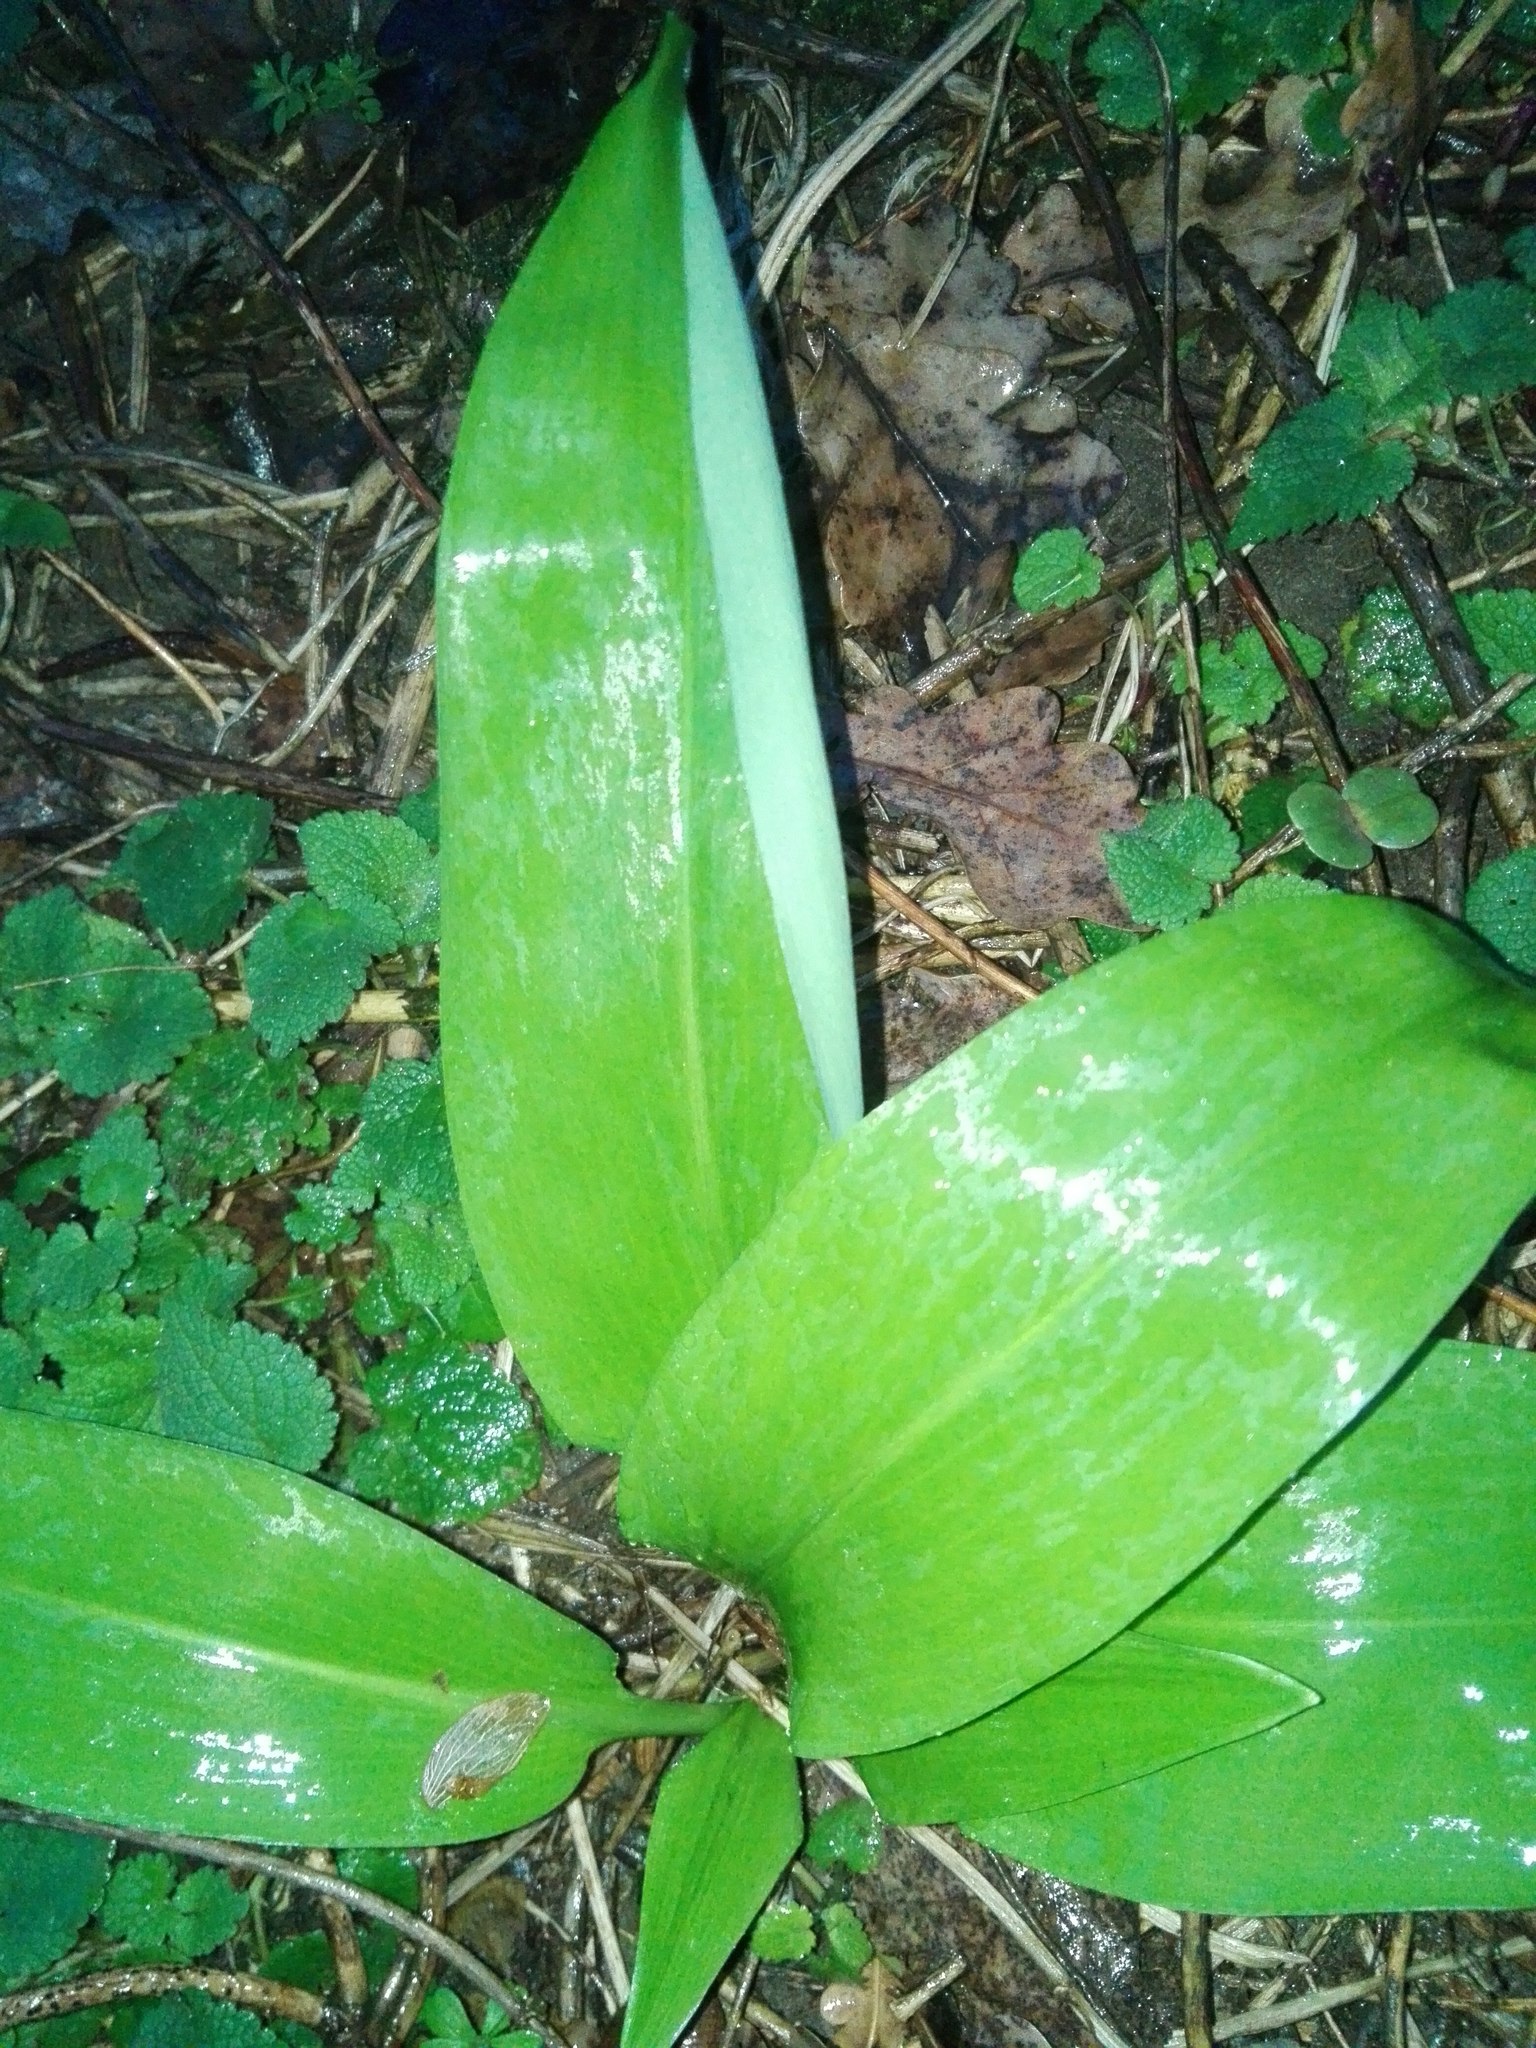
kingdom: Plantae
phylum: Tracheophyta
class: Liliopsida
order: Asparagales
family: Amaryllidaceae
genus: Allium
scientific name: Allium ursinum
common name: Ramsons
